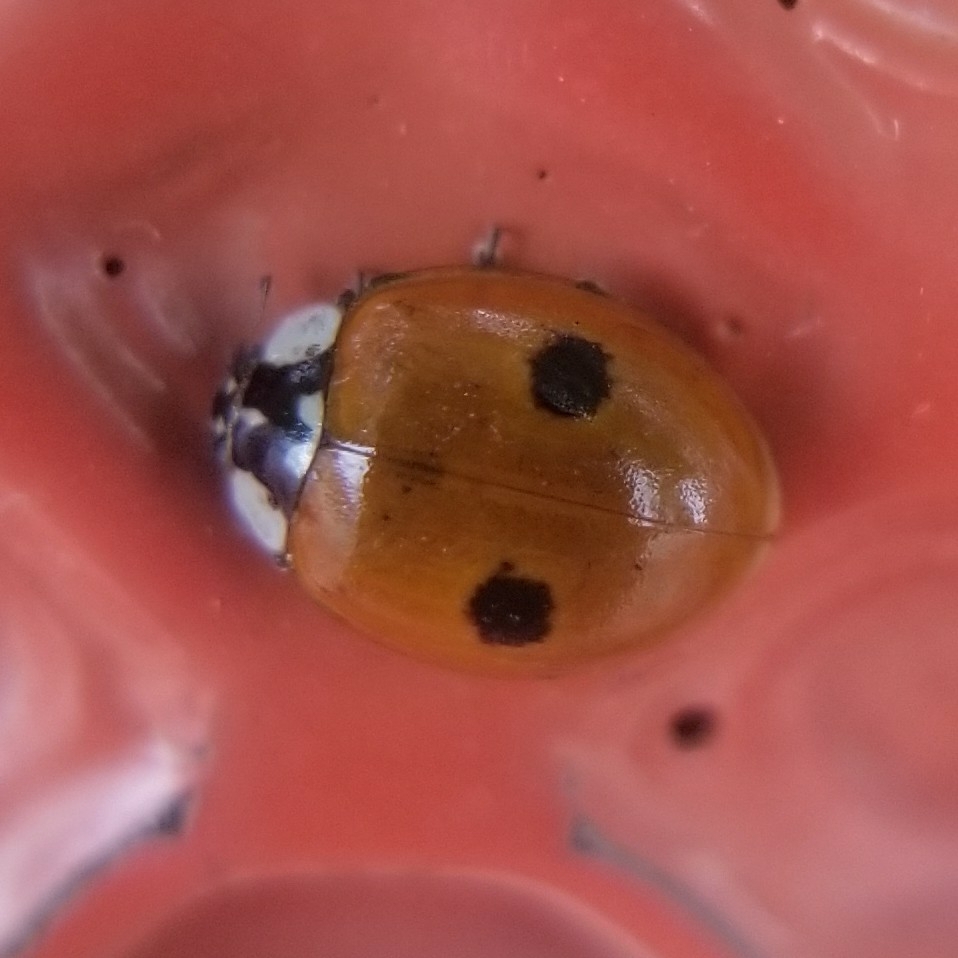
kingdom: Animalia
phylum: Arthropoda
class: Insecta
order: Coleoptera
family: Coccinellidae
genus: Adalia
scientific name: Adalia bipunctata
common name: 2-spot ladybird
